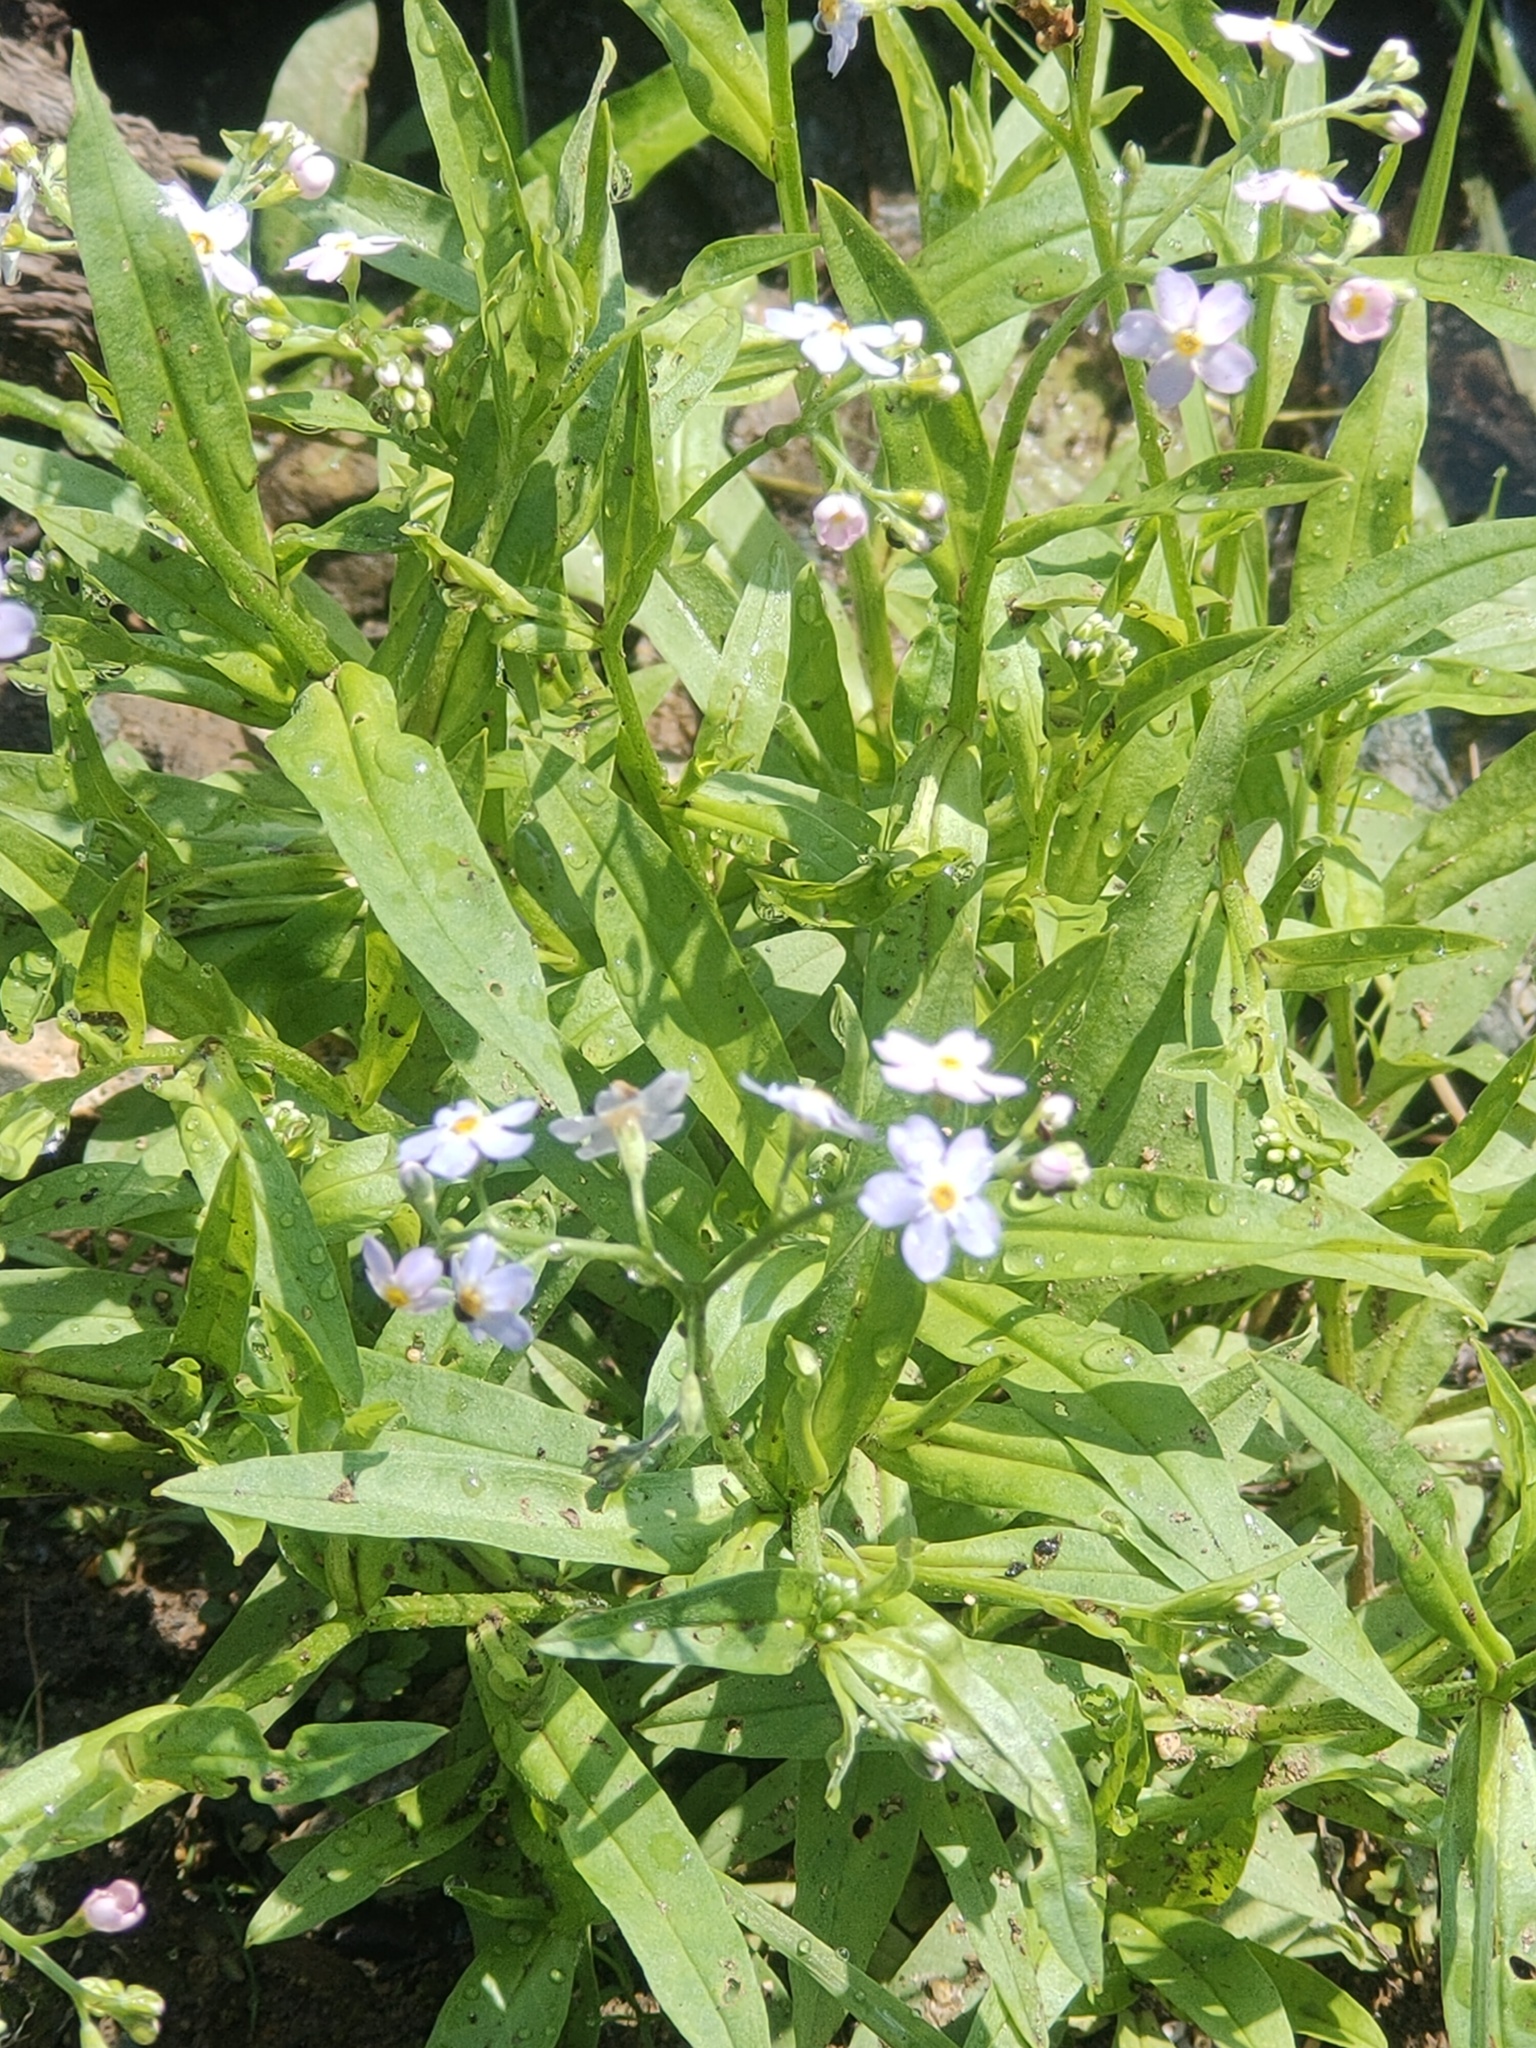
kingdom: Plantae
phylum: Tracheophyta
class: Magnoliopsida
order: Boraginales
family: Boraginaceae
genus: Myosotis
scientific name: Myosotis scorpioides
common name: Water forget-me-not
